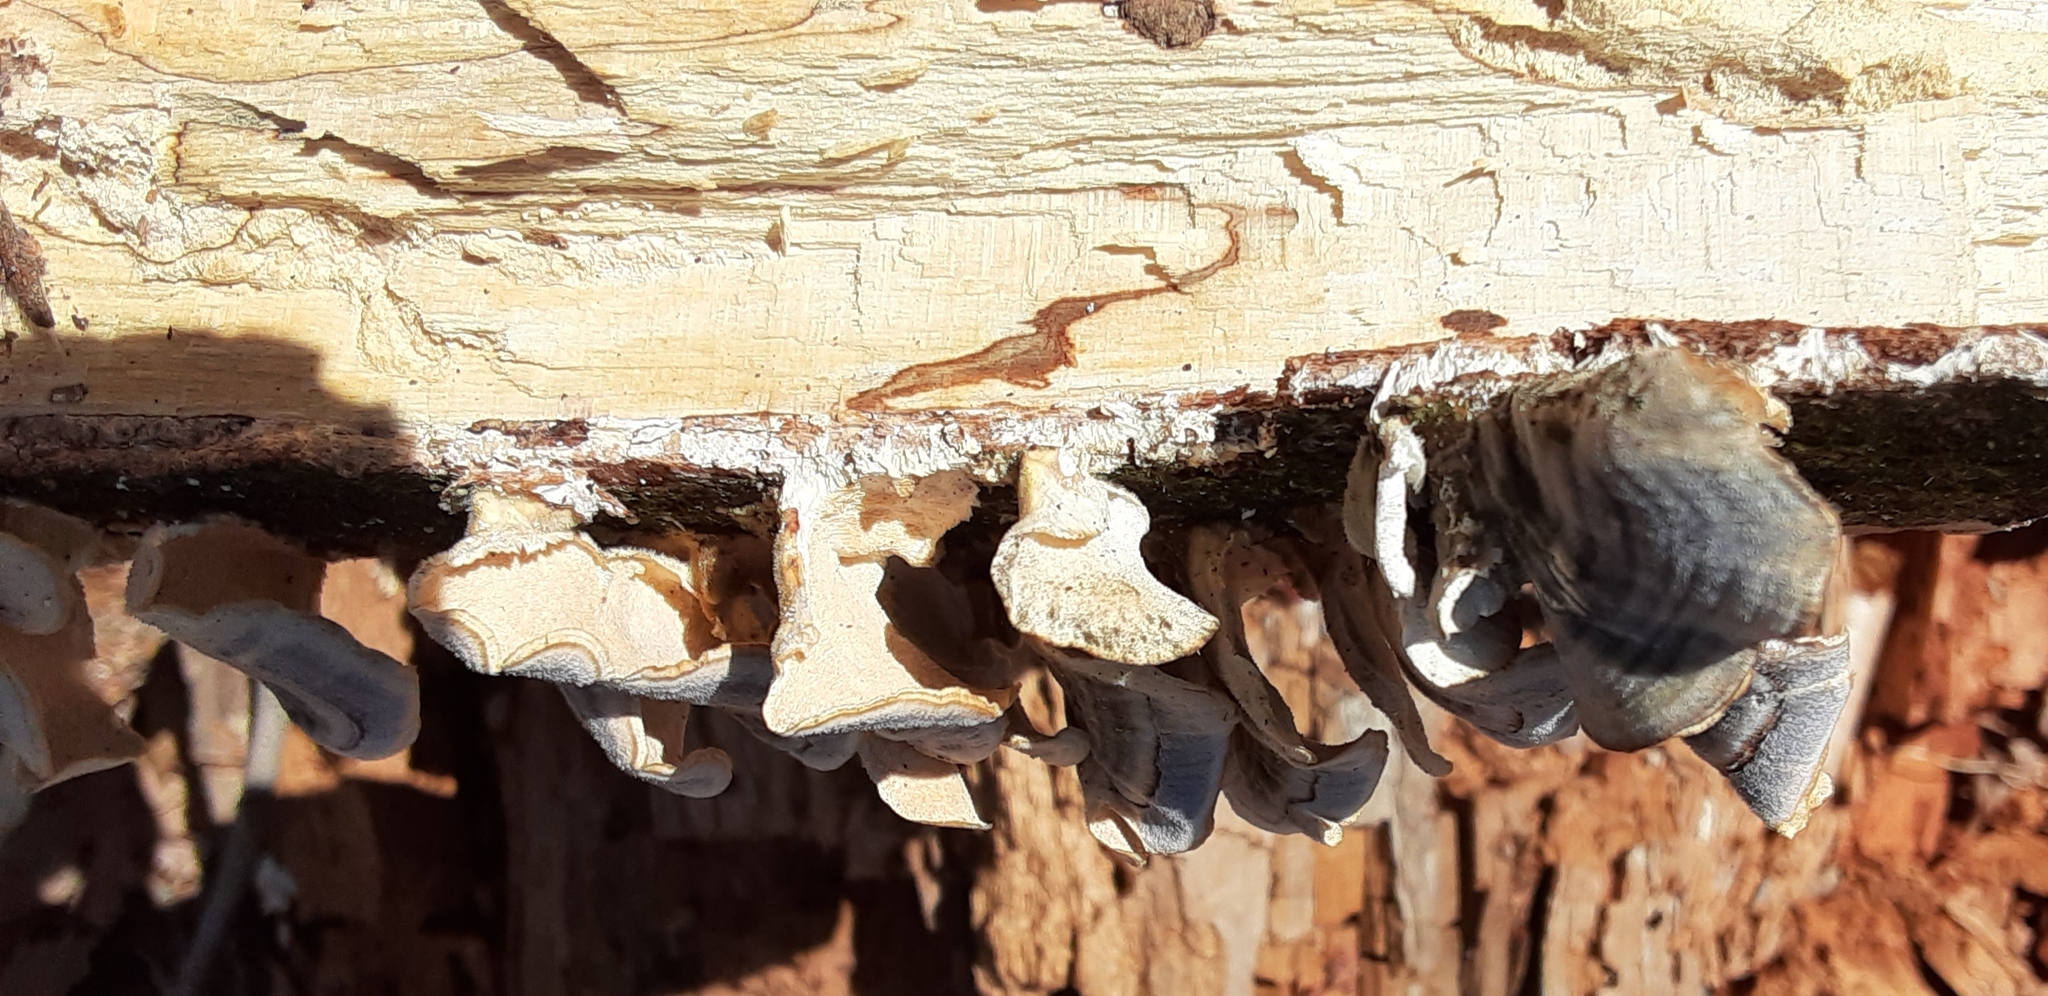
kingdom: Fungi
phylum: Basidiomycota
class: Agaricomycetes
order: Polyporales
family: Polyporaceae
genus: Trametes
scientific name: Trametes versicolor
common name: Turkeytail
